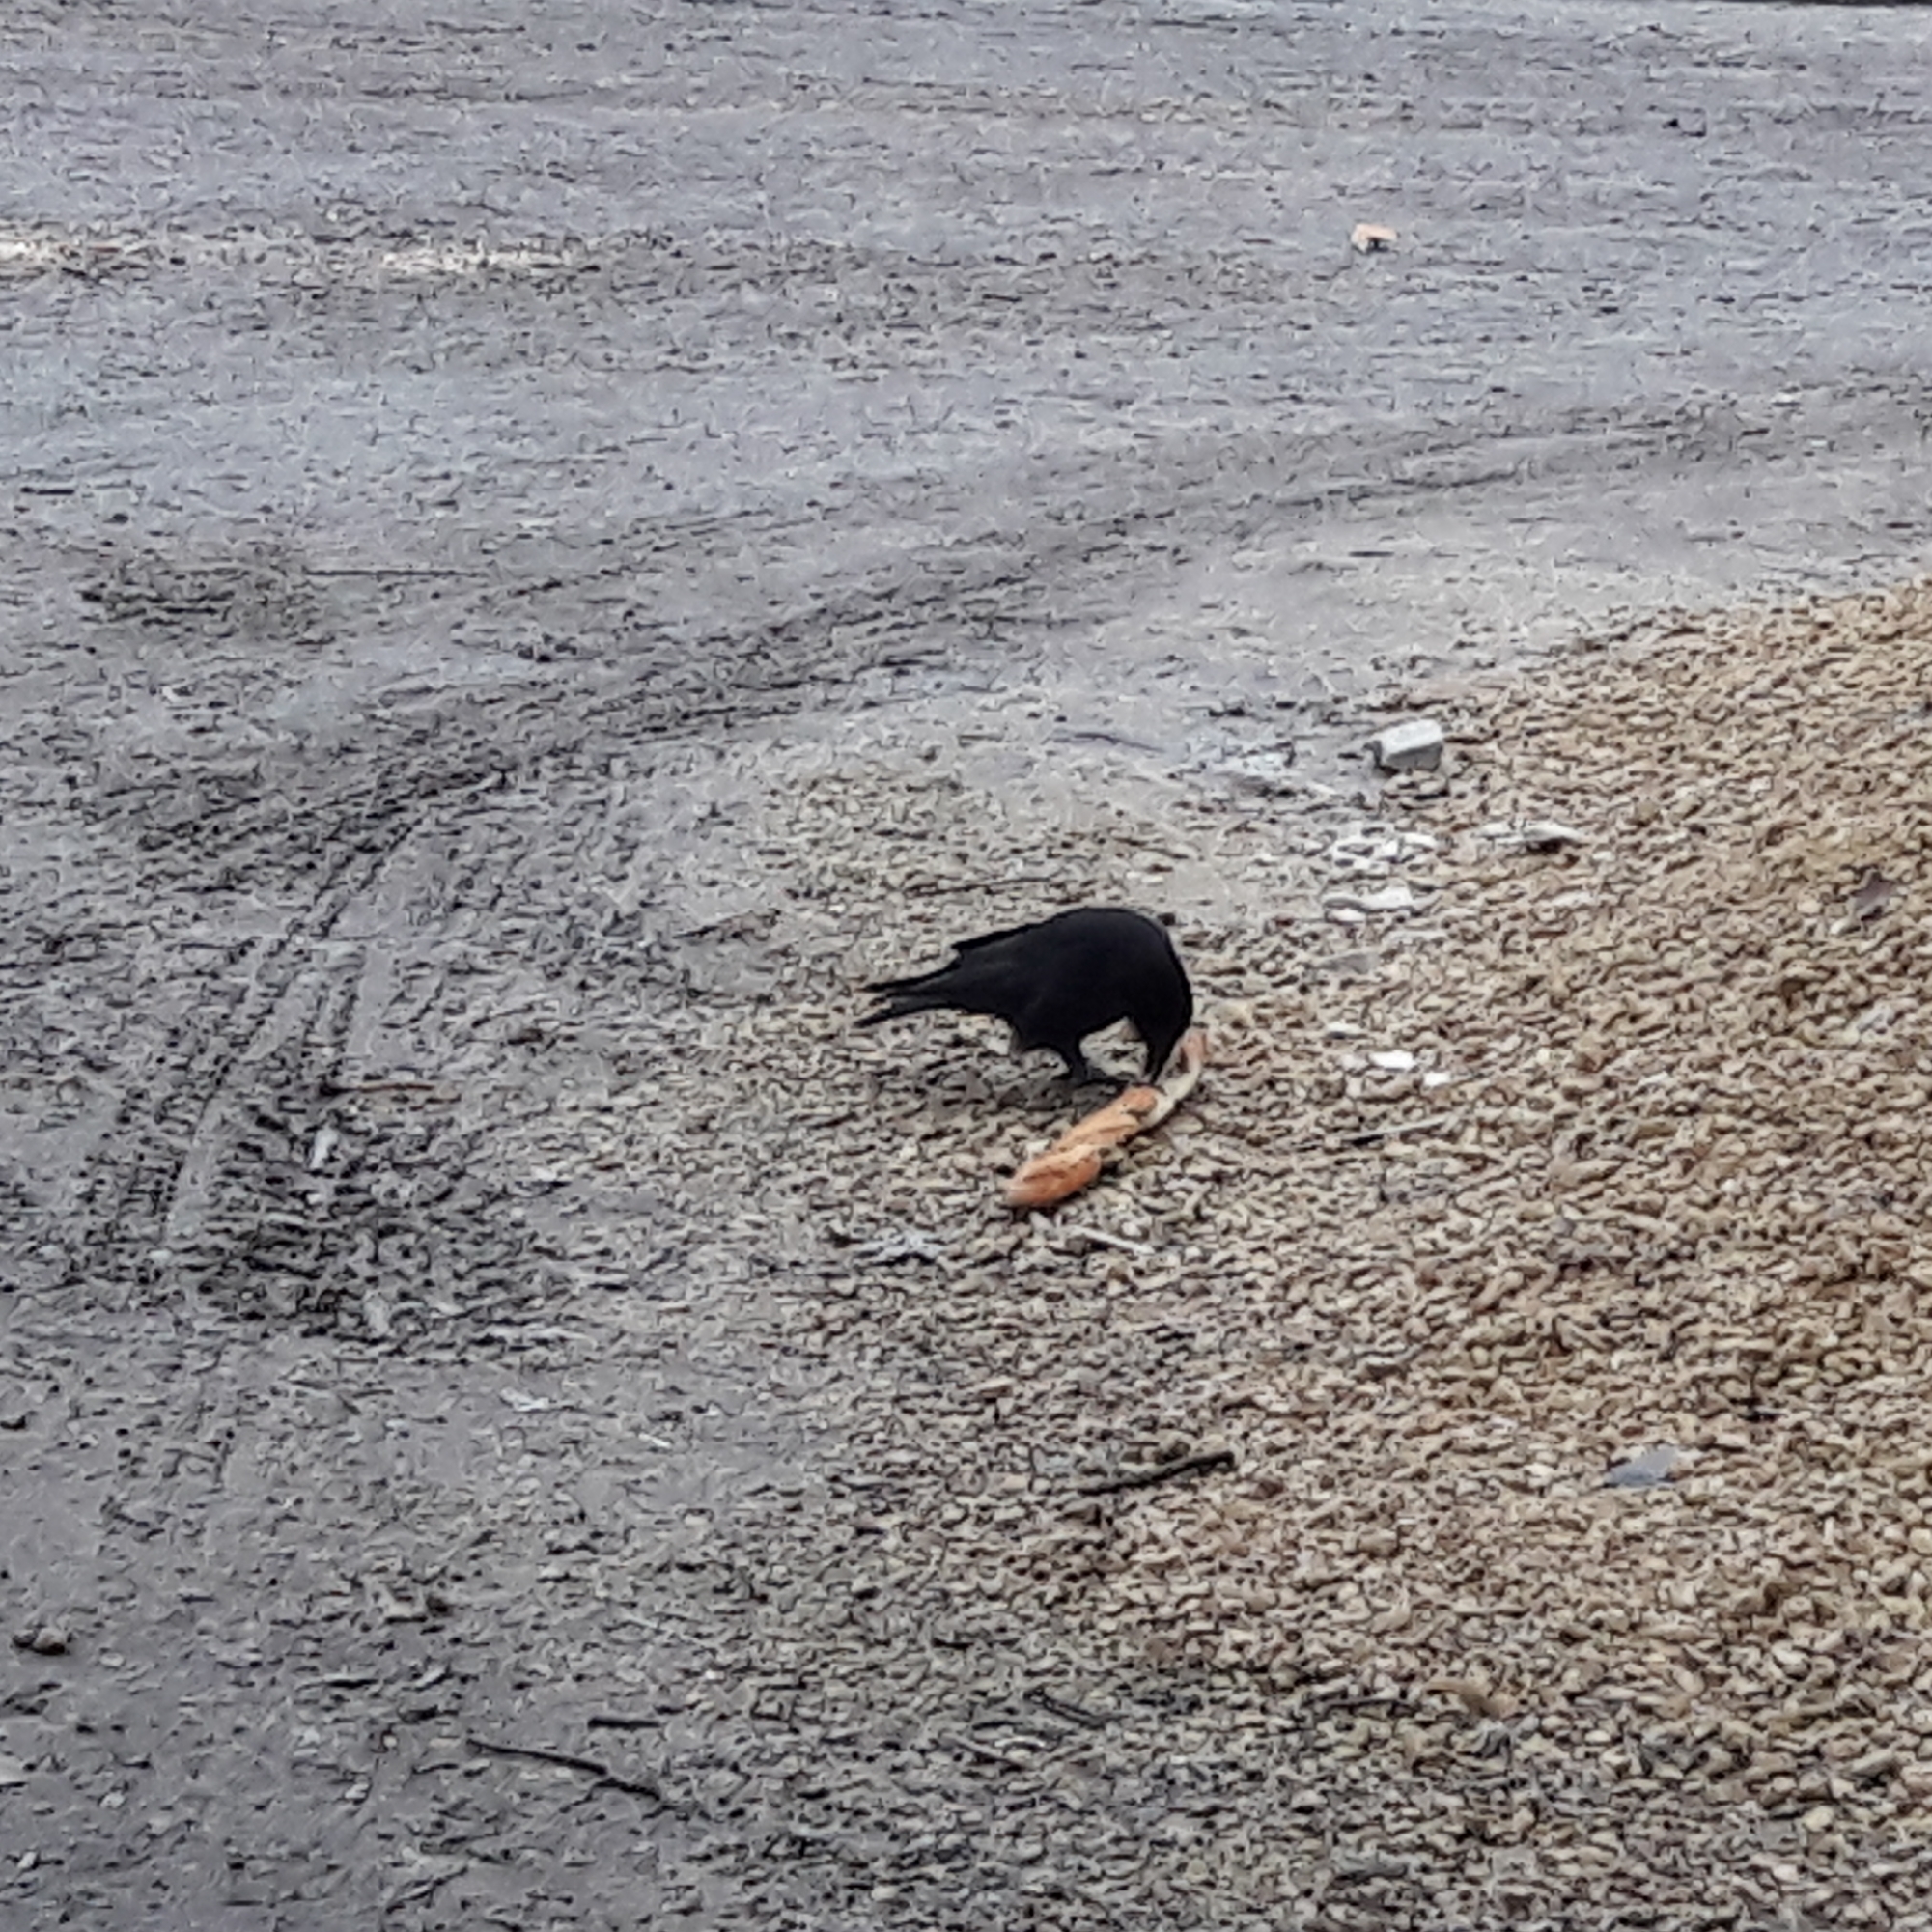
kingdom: Animalia
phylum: Chordata
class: Aves
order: Passeriformes
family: Corvidae
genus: Corvus
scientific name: Corvus corone
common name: Carrion crow
